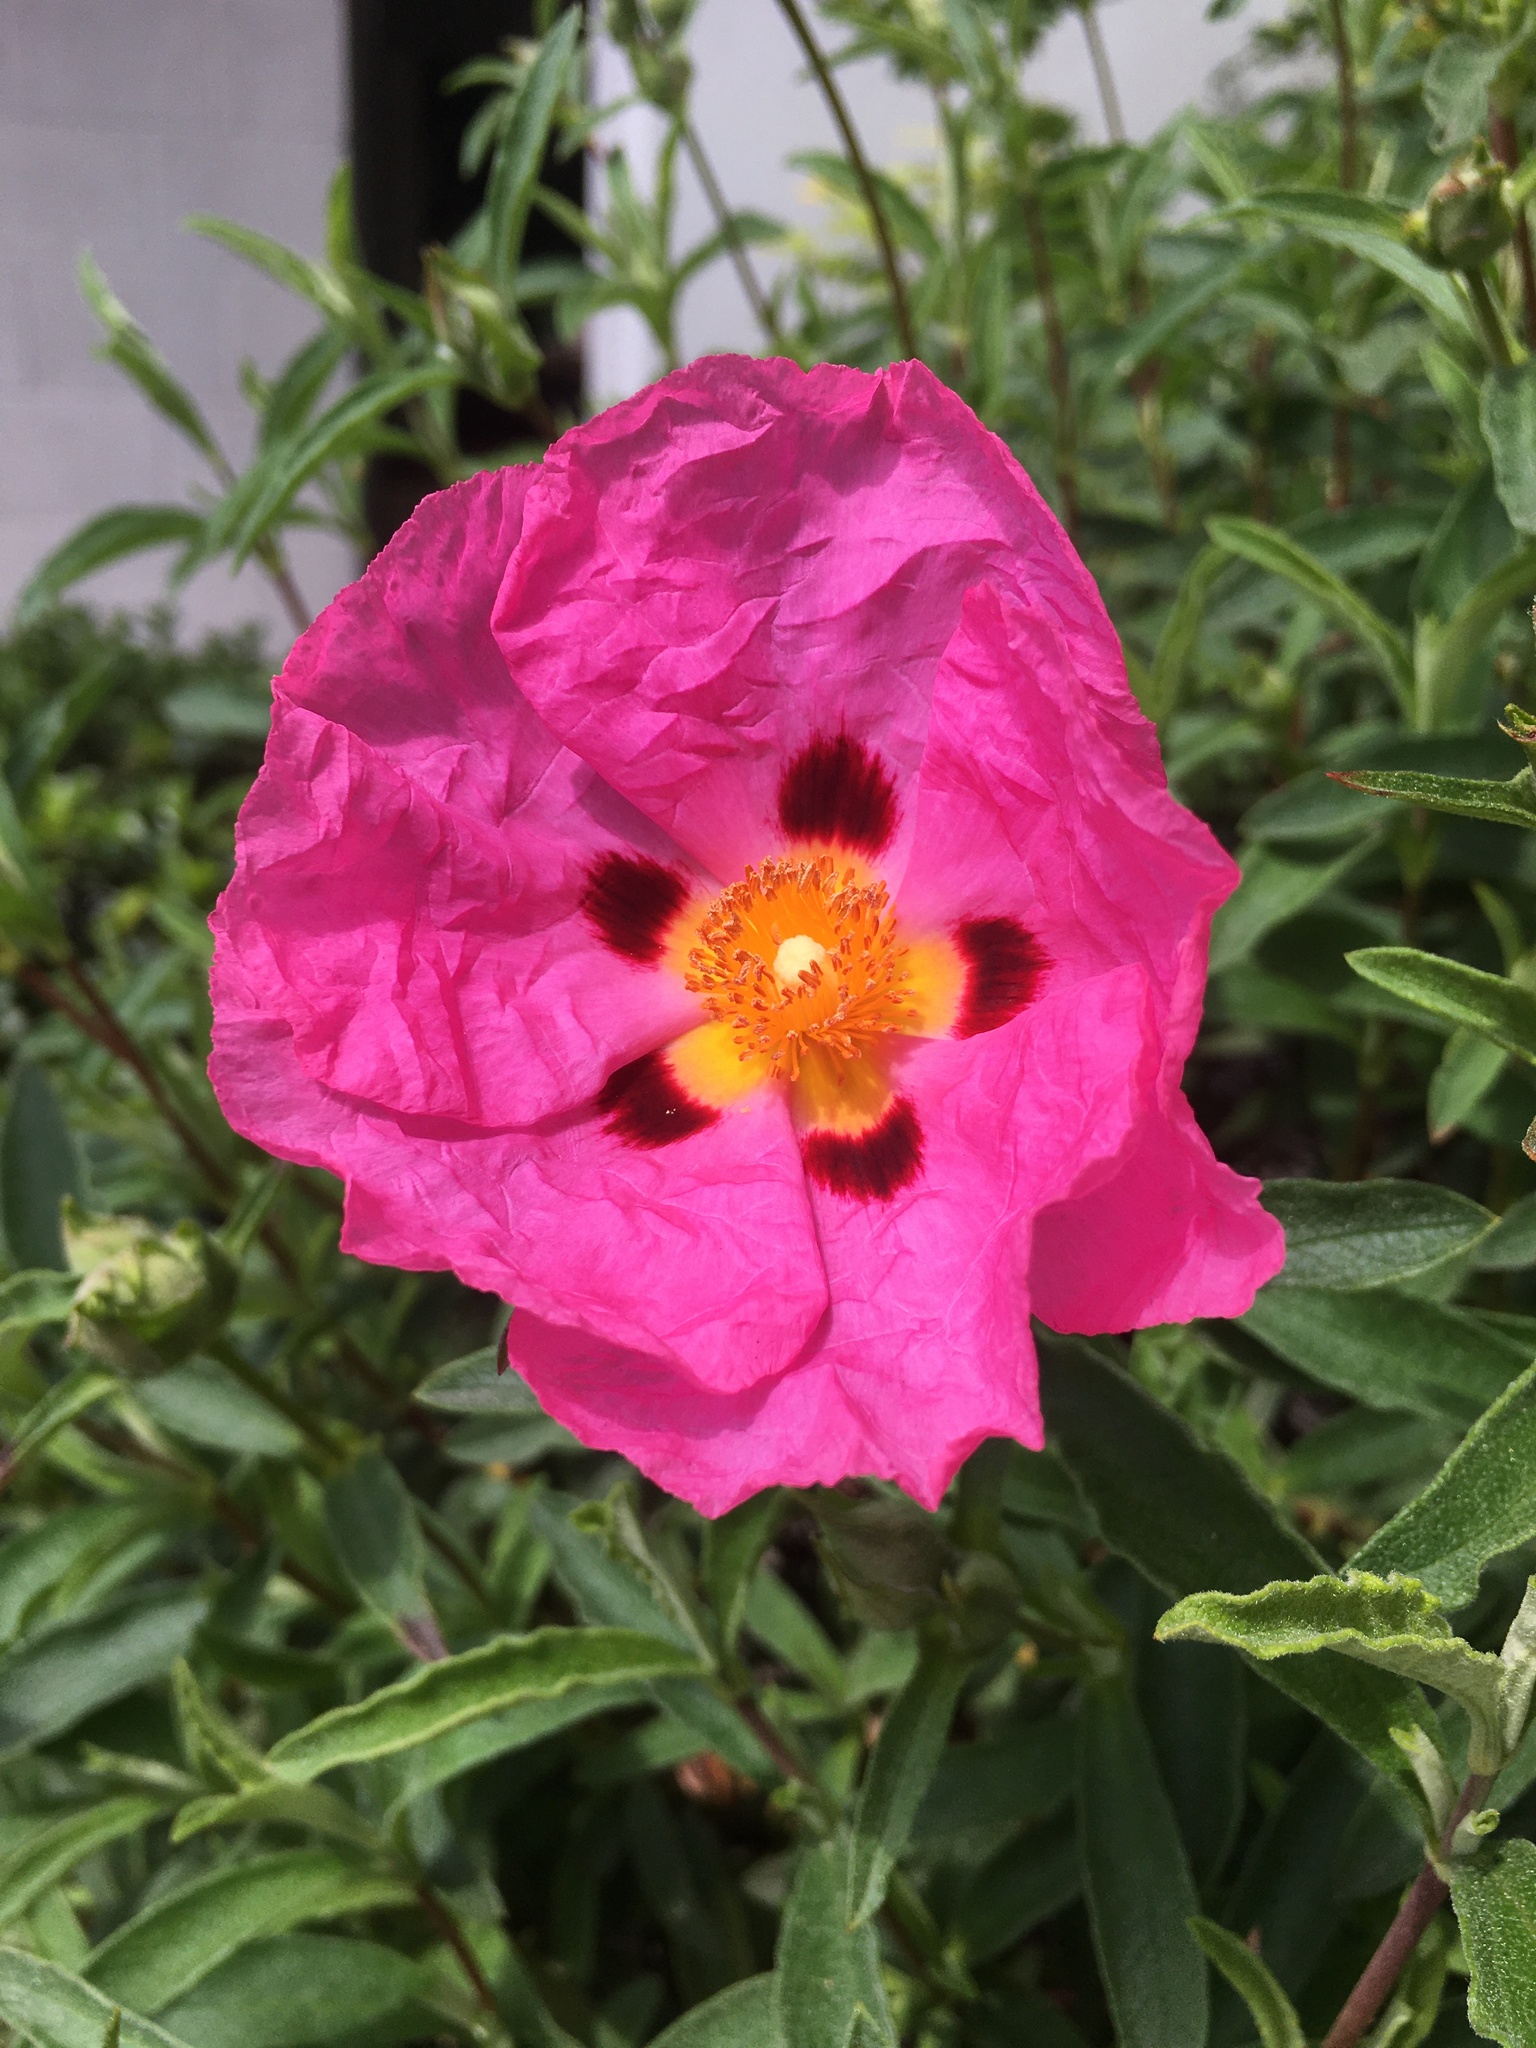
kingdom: Plantae
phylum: Tracheophyta
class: Magnoliopsida
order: Malvales
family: Cistaceae
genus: Cistus
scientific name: Cistus purpureus
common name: Purple cistus
